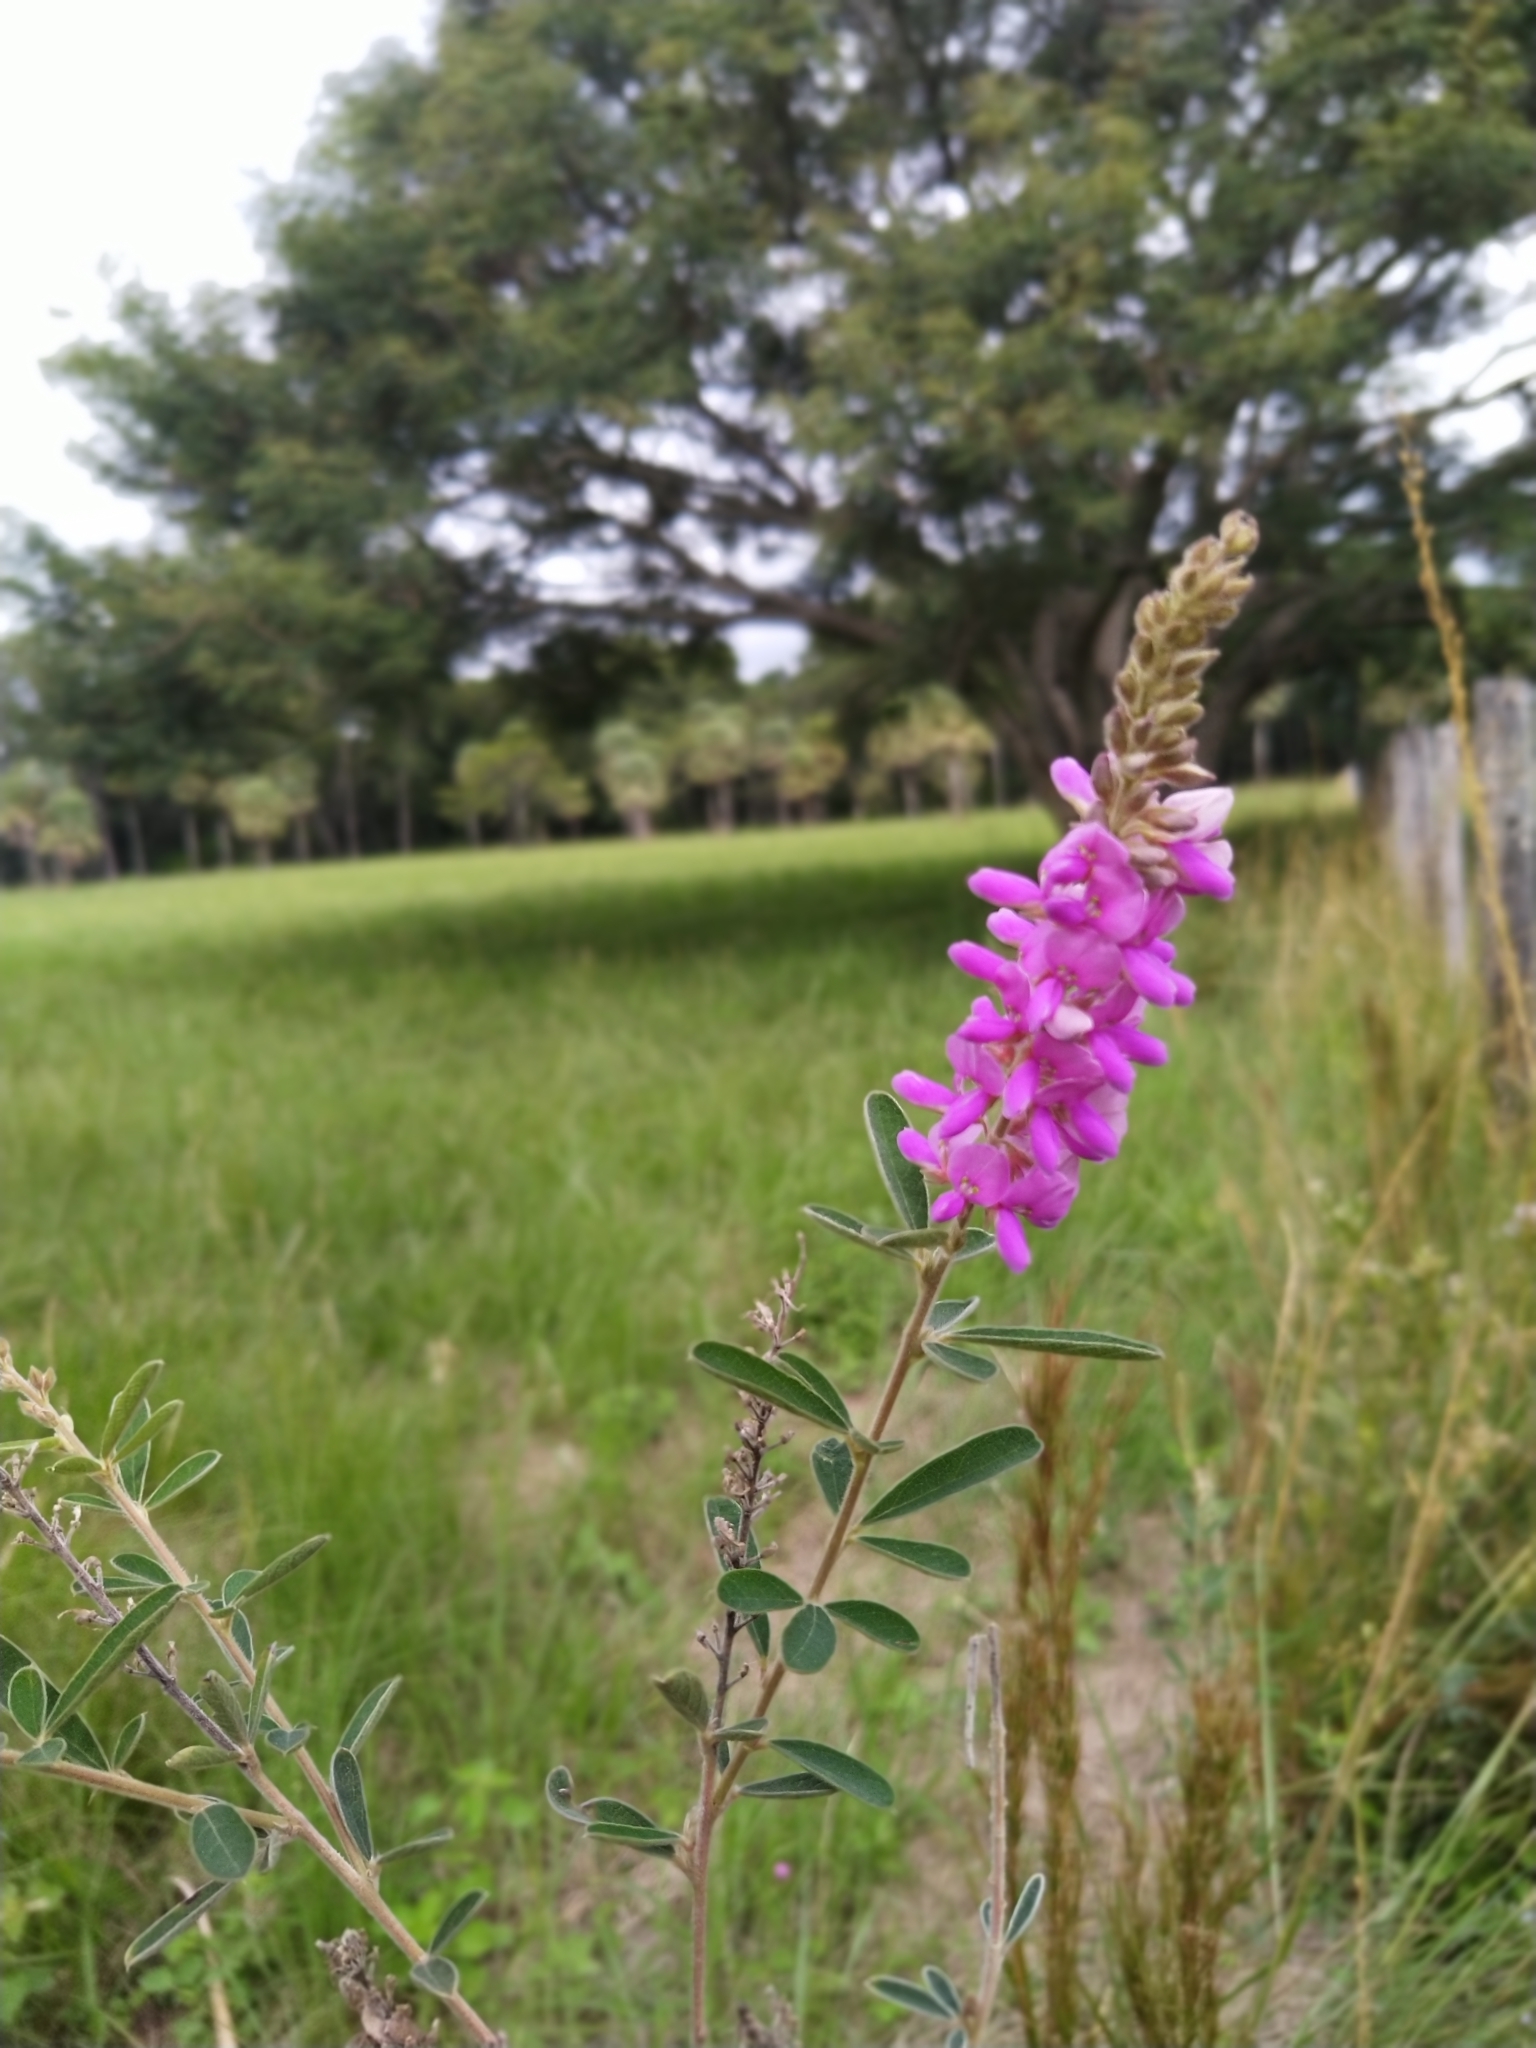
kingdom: Plantae
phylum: Tracheophyta
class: Magnoliopsida
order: Fabales
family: Fabaceae
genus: Desmodium
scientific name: Desmodium cuneatum
